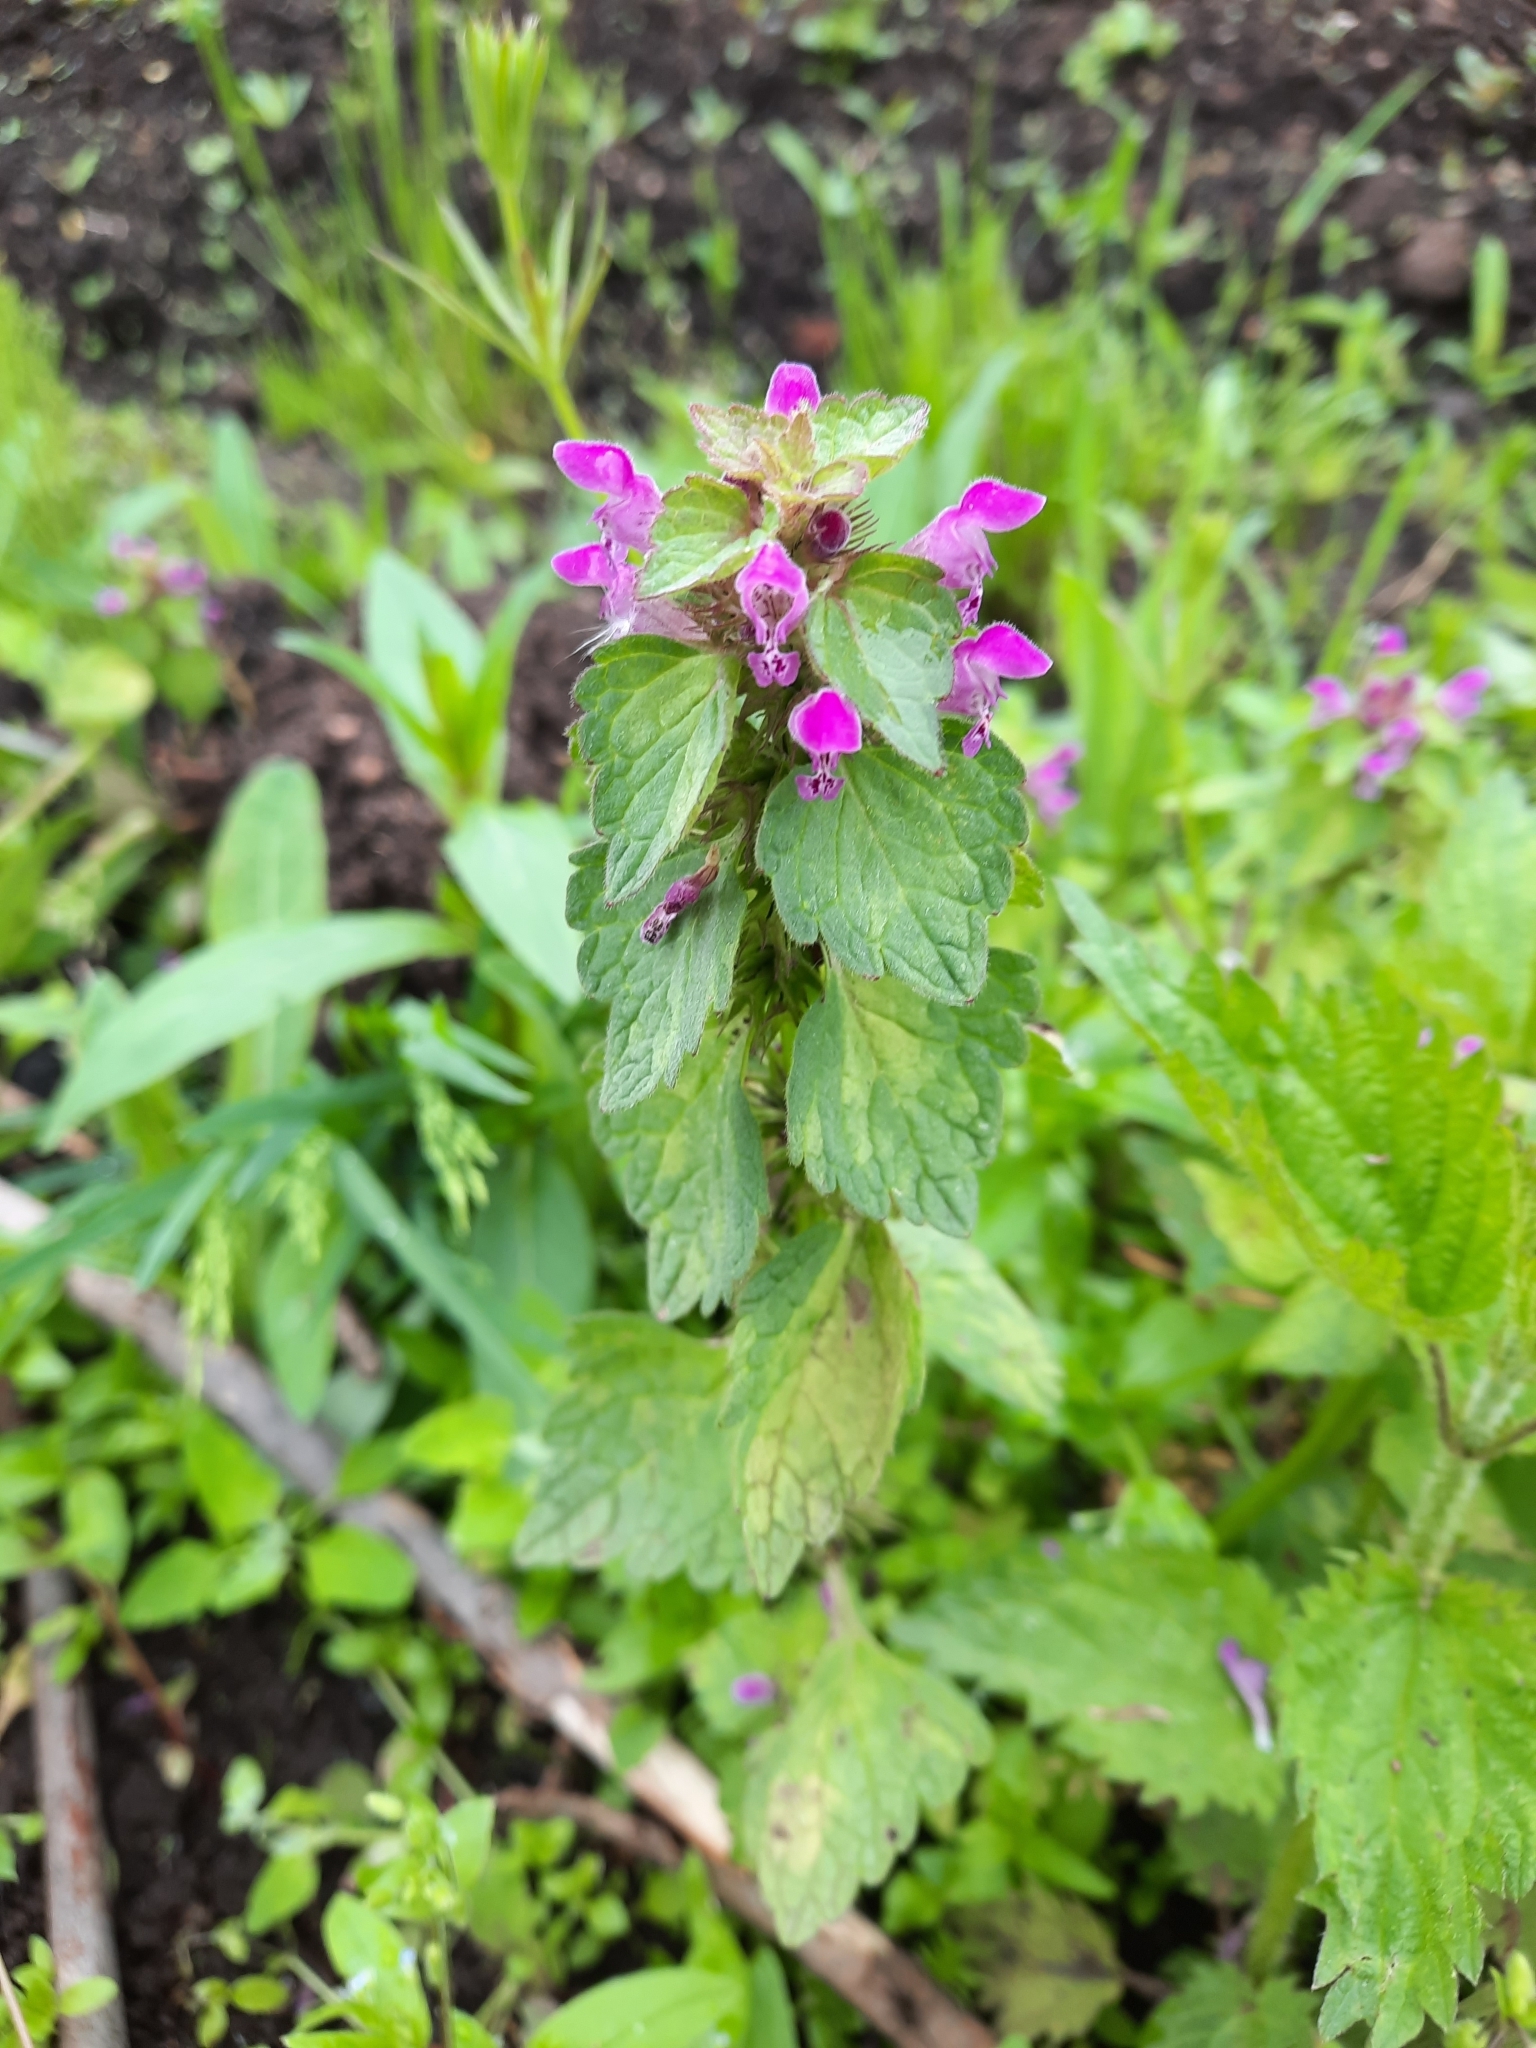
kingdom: Plantae
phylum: Tracheophyta
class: Magnoliopsida
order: Lamiales
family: Lamiaceae
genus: Lamium
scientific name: Lamium purpureum
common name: Red dead-nettle
